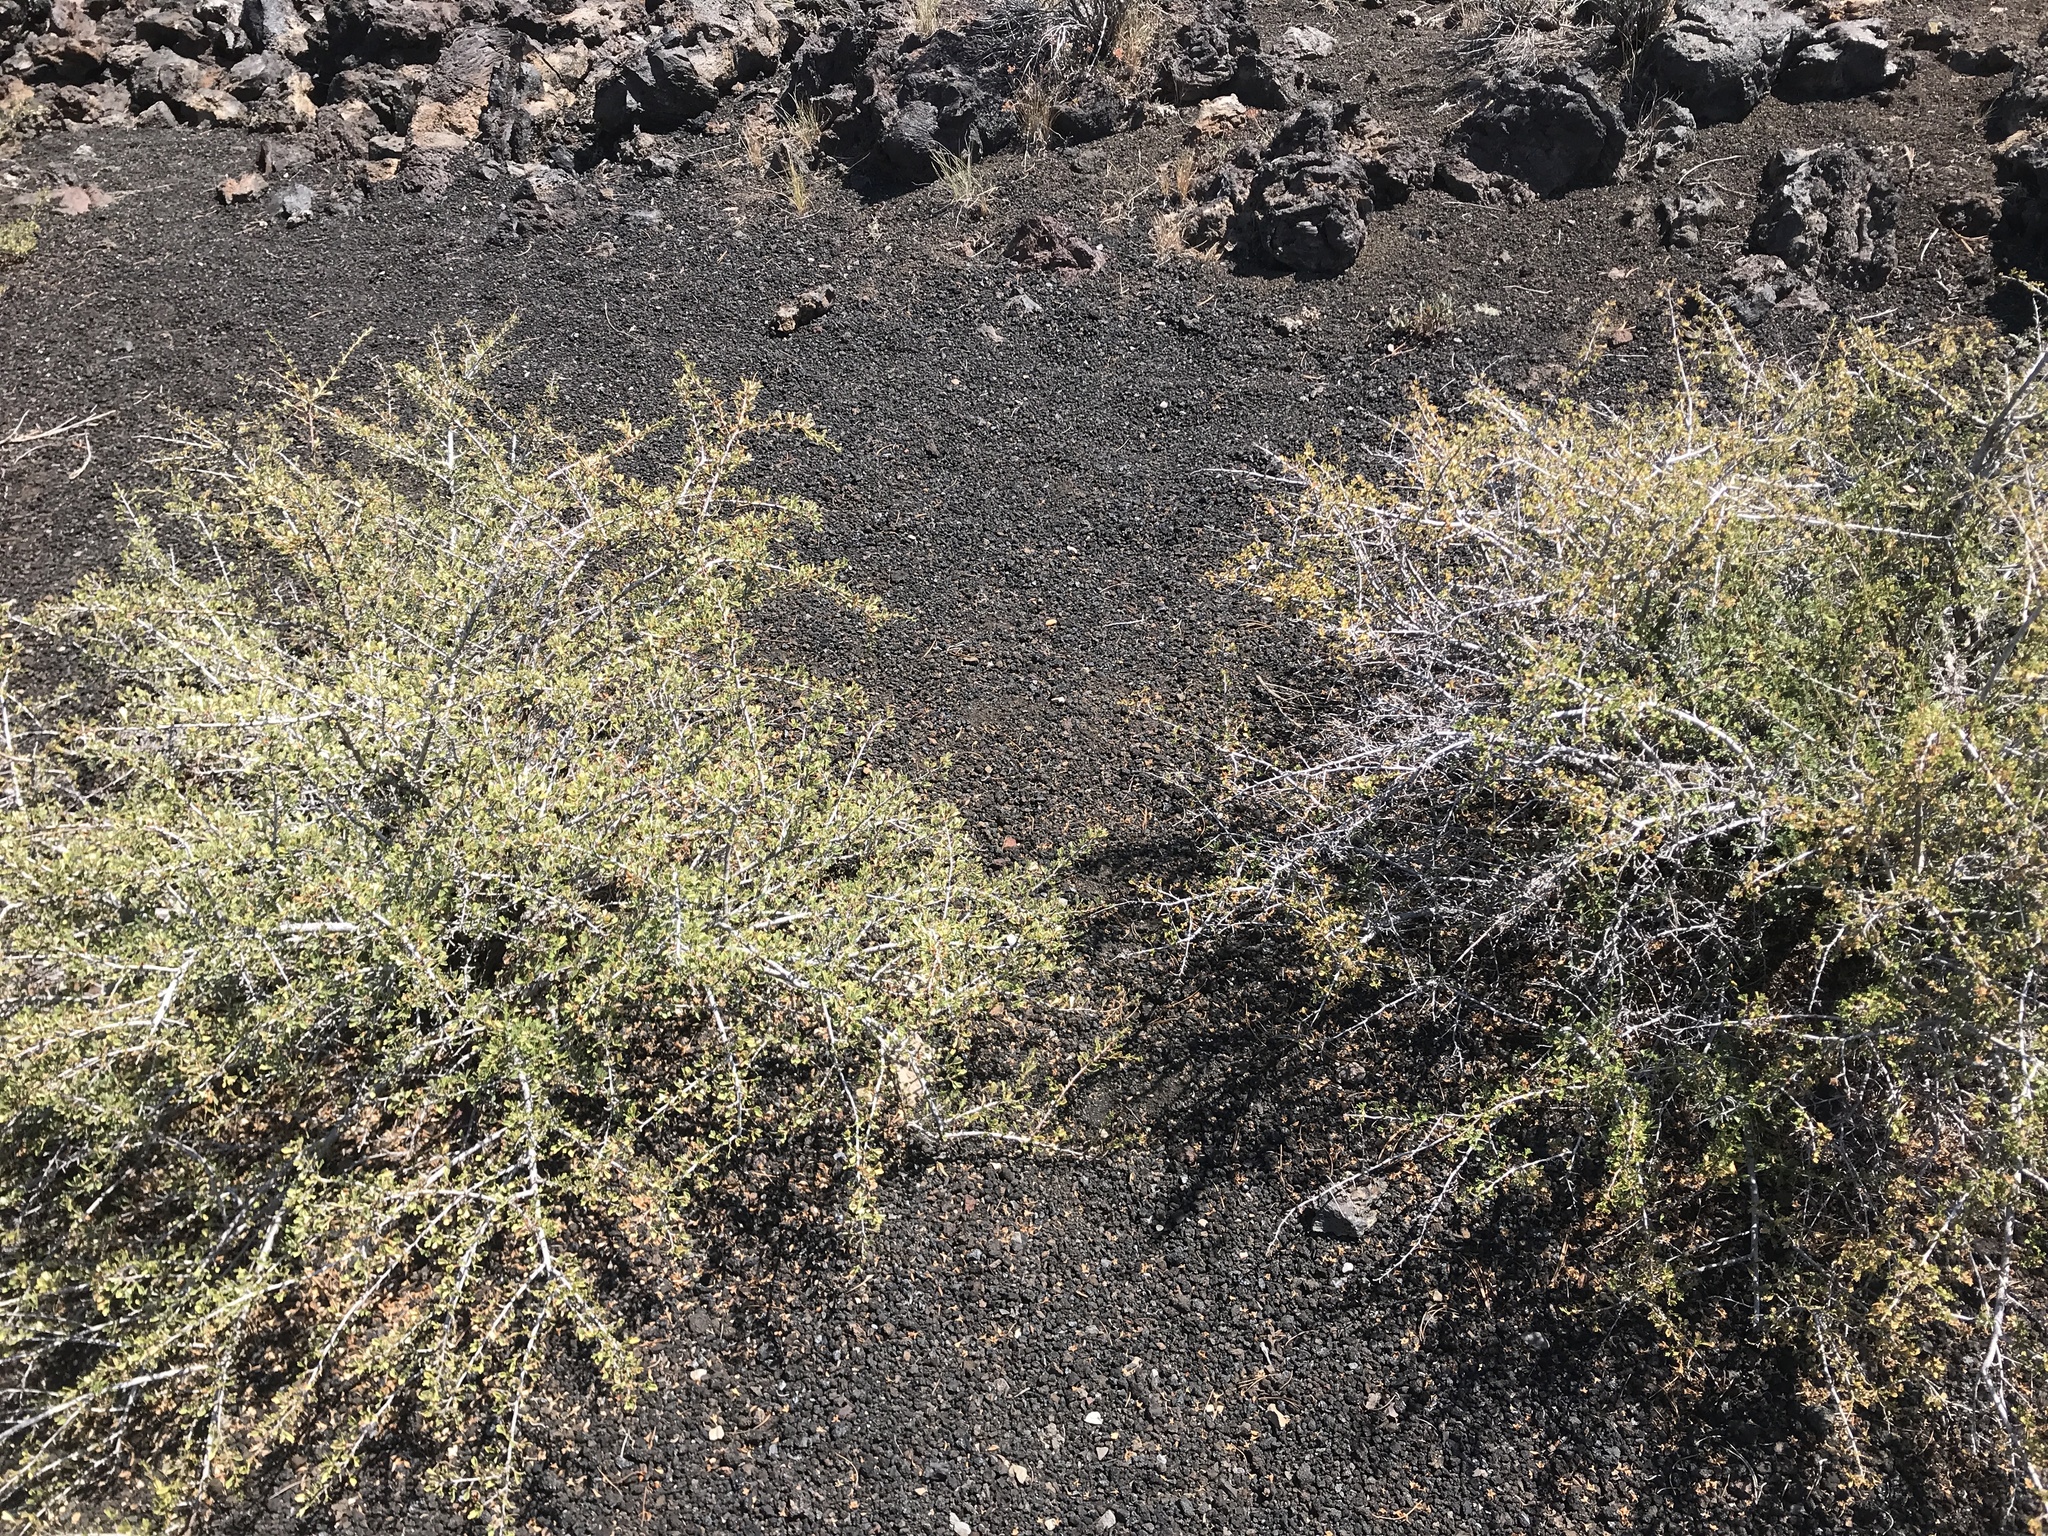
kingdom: Plantae
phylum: Tracheophyta
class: Magnoliopsida
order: Rosales
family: Rosaceae
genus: Purshia
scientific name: Purshia tridentata
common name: Antelope bitterbrush
